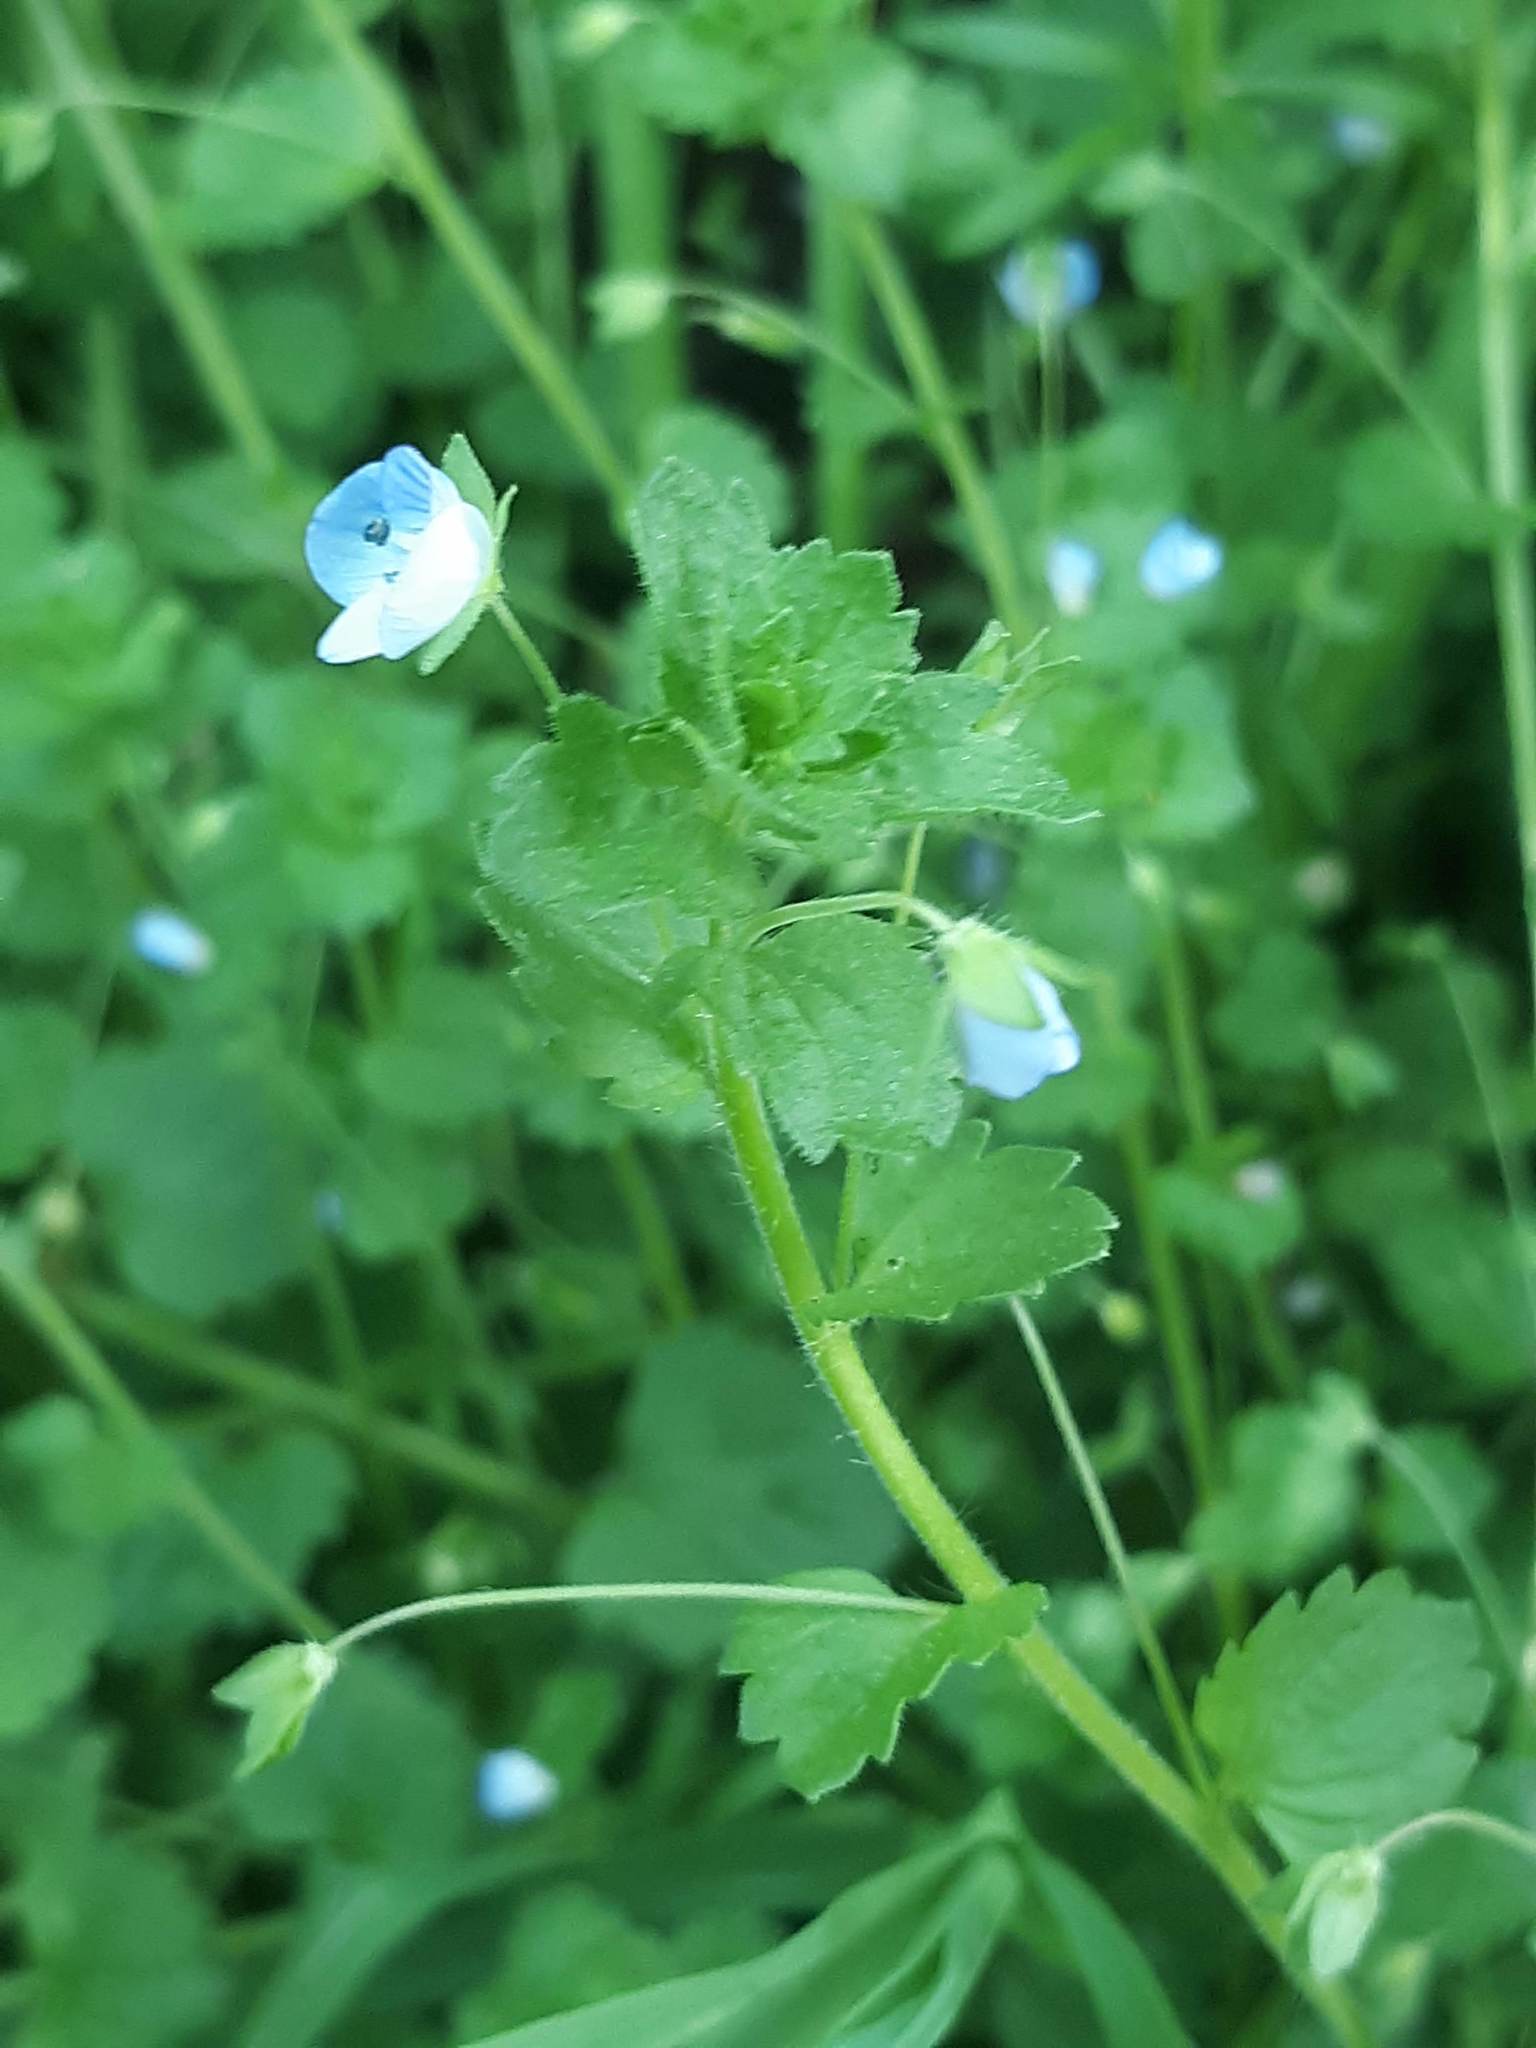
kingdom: Plantae
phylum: Tracheophyta
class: Magnoliopsida
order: Lamiales
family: Plantaginaceae
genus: Veronica
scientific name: Veronica persica
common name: Common field-speedwell
